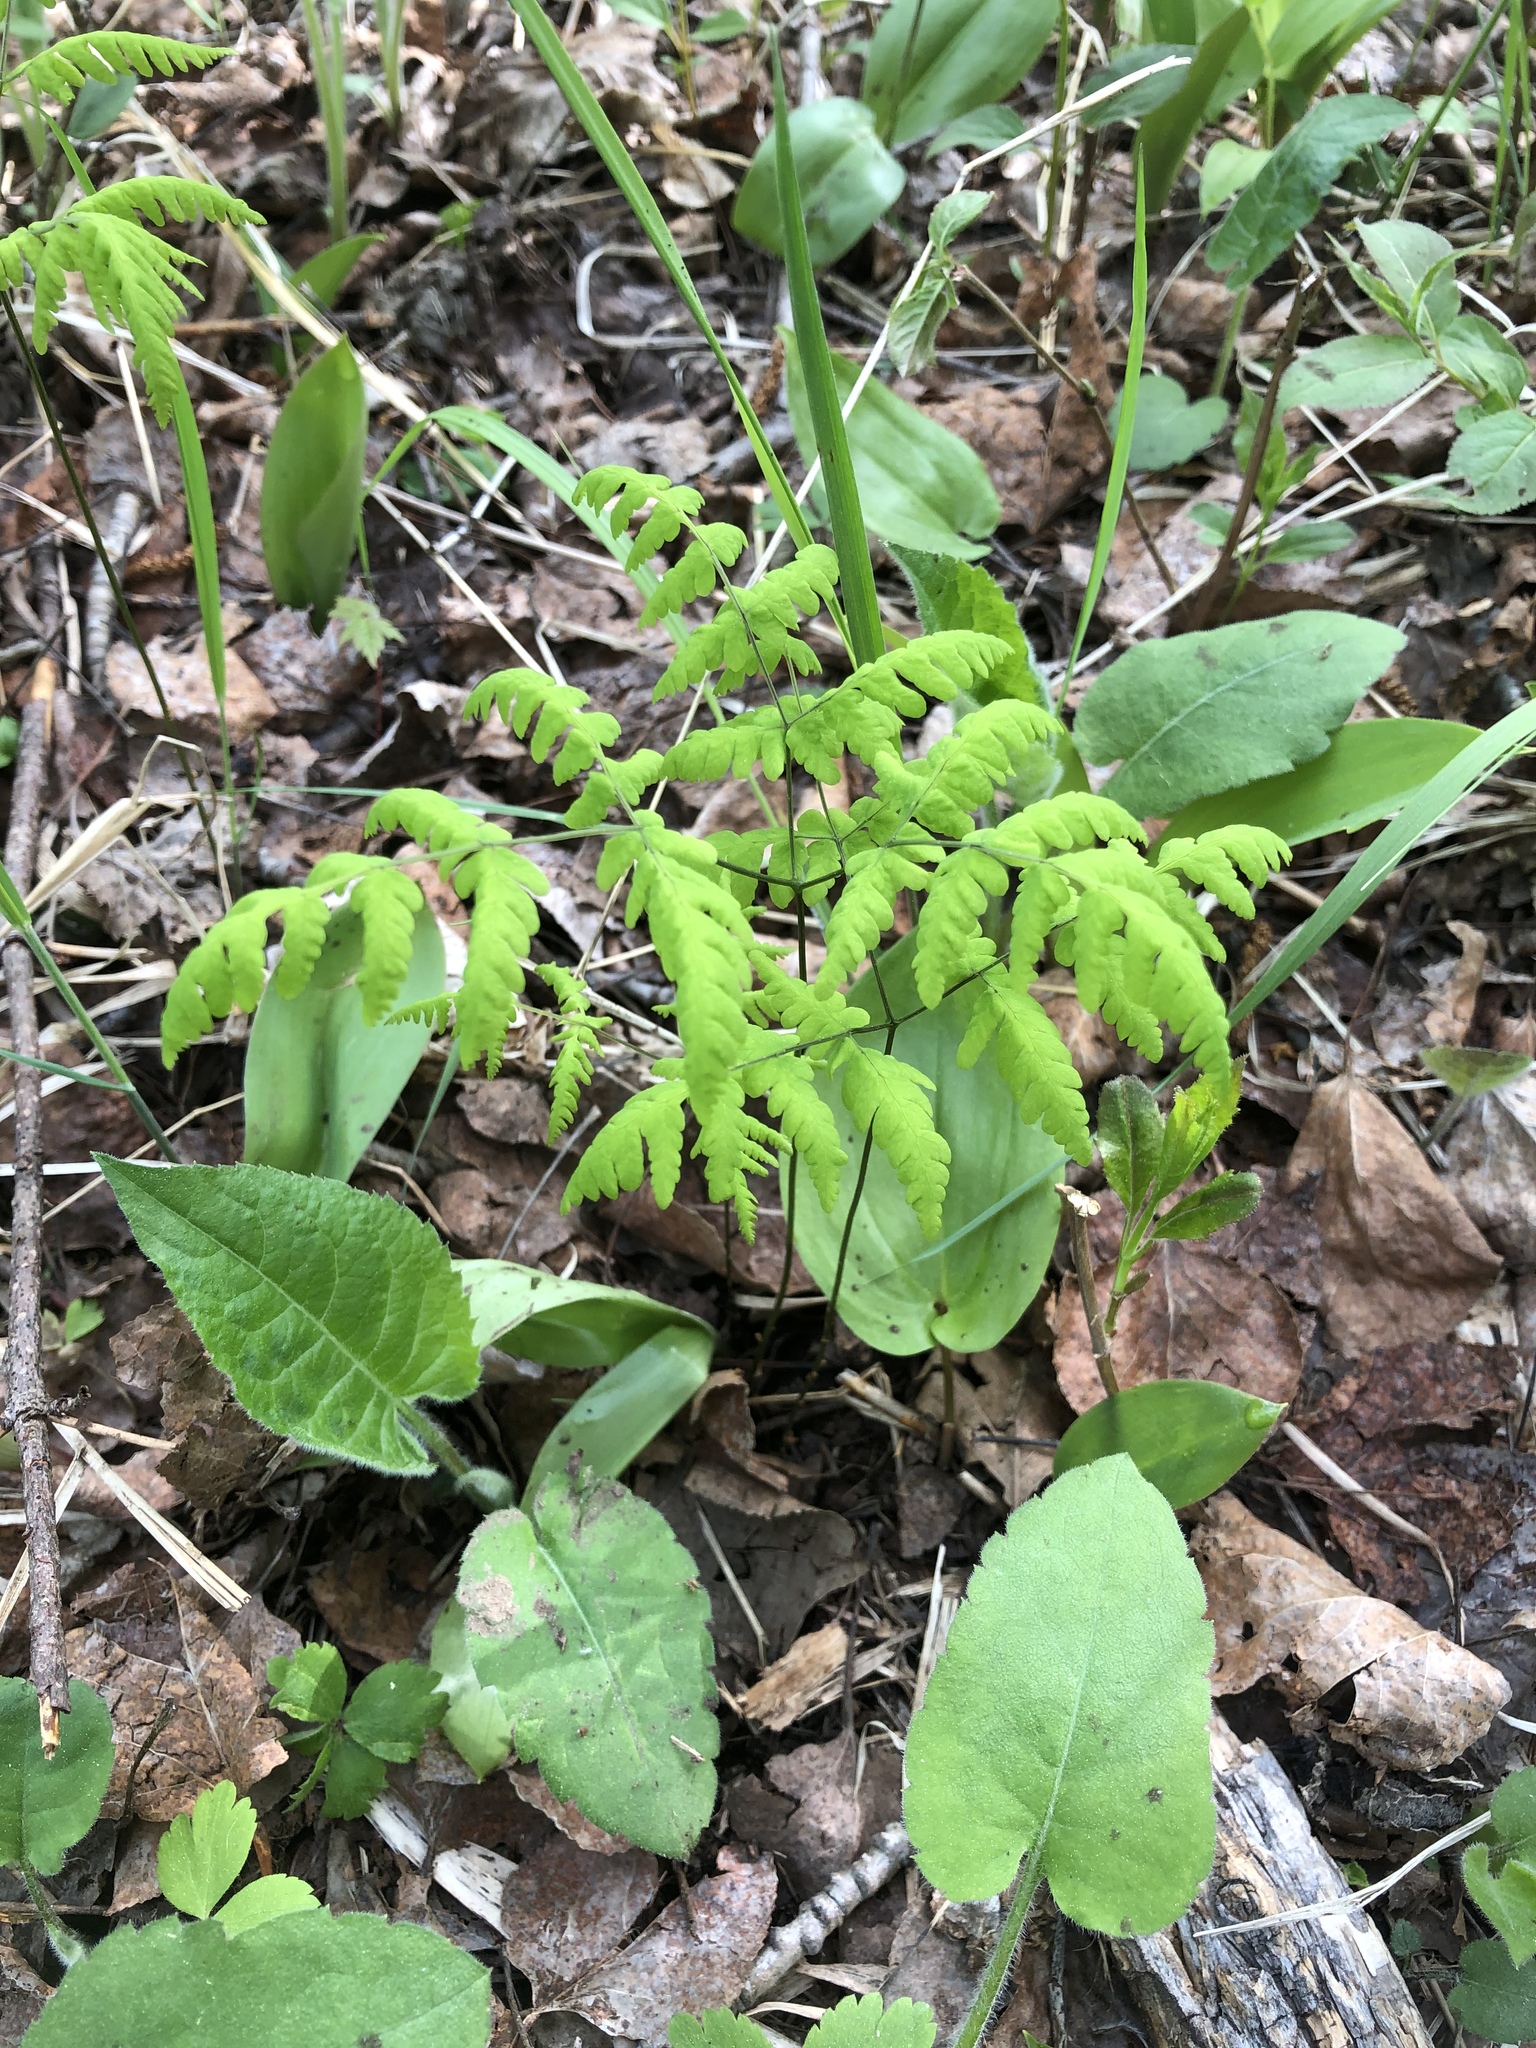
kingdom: Plantae
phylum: Tracheophyta
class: Polypodiopsida
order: Polypodiales
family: Cystopteridaceae
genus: Gymnocarpium
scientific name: Gymnocarpium dryopteris
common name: Oak fern
